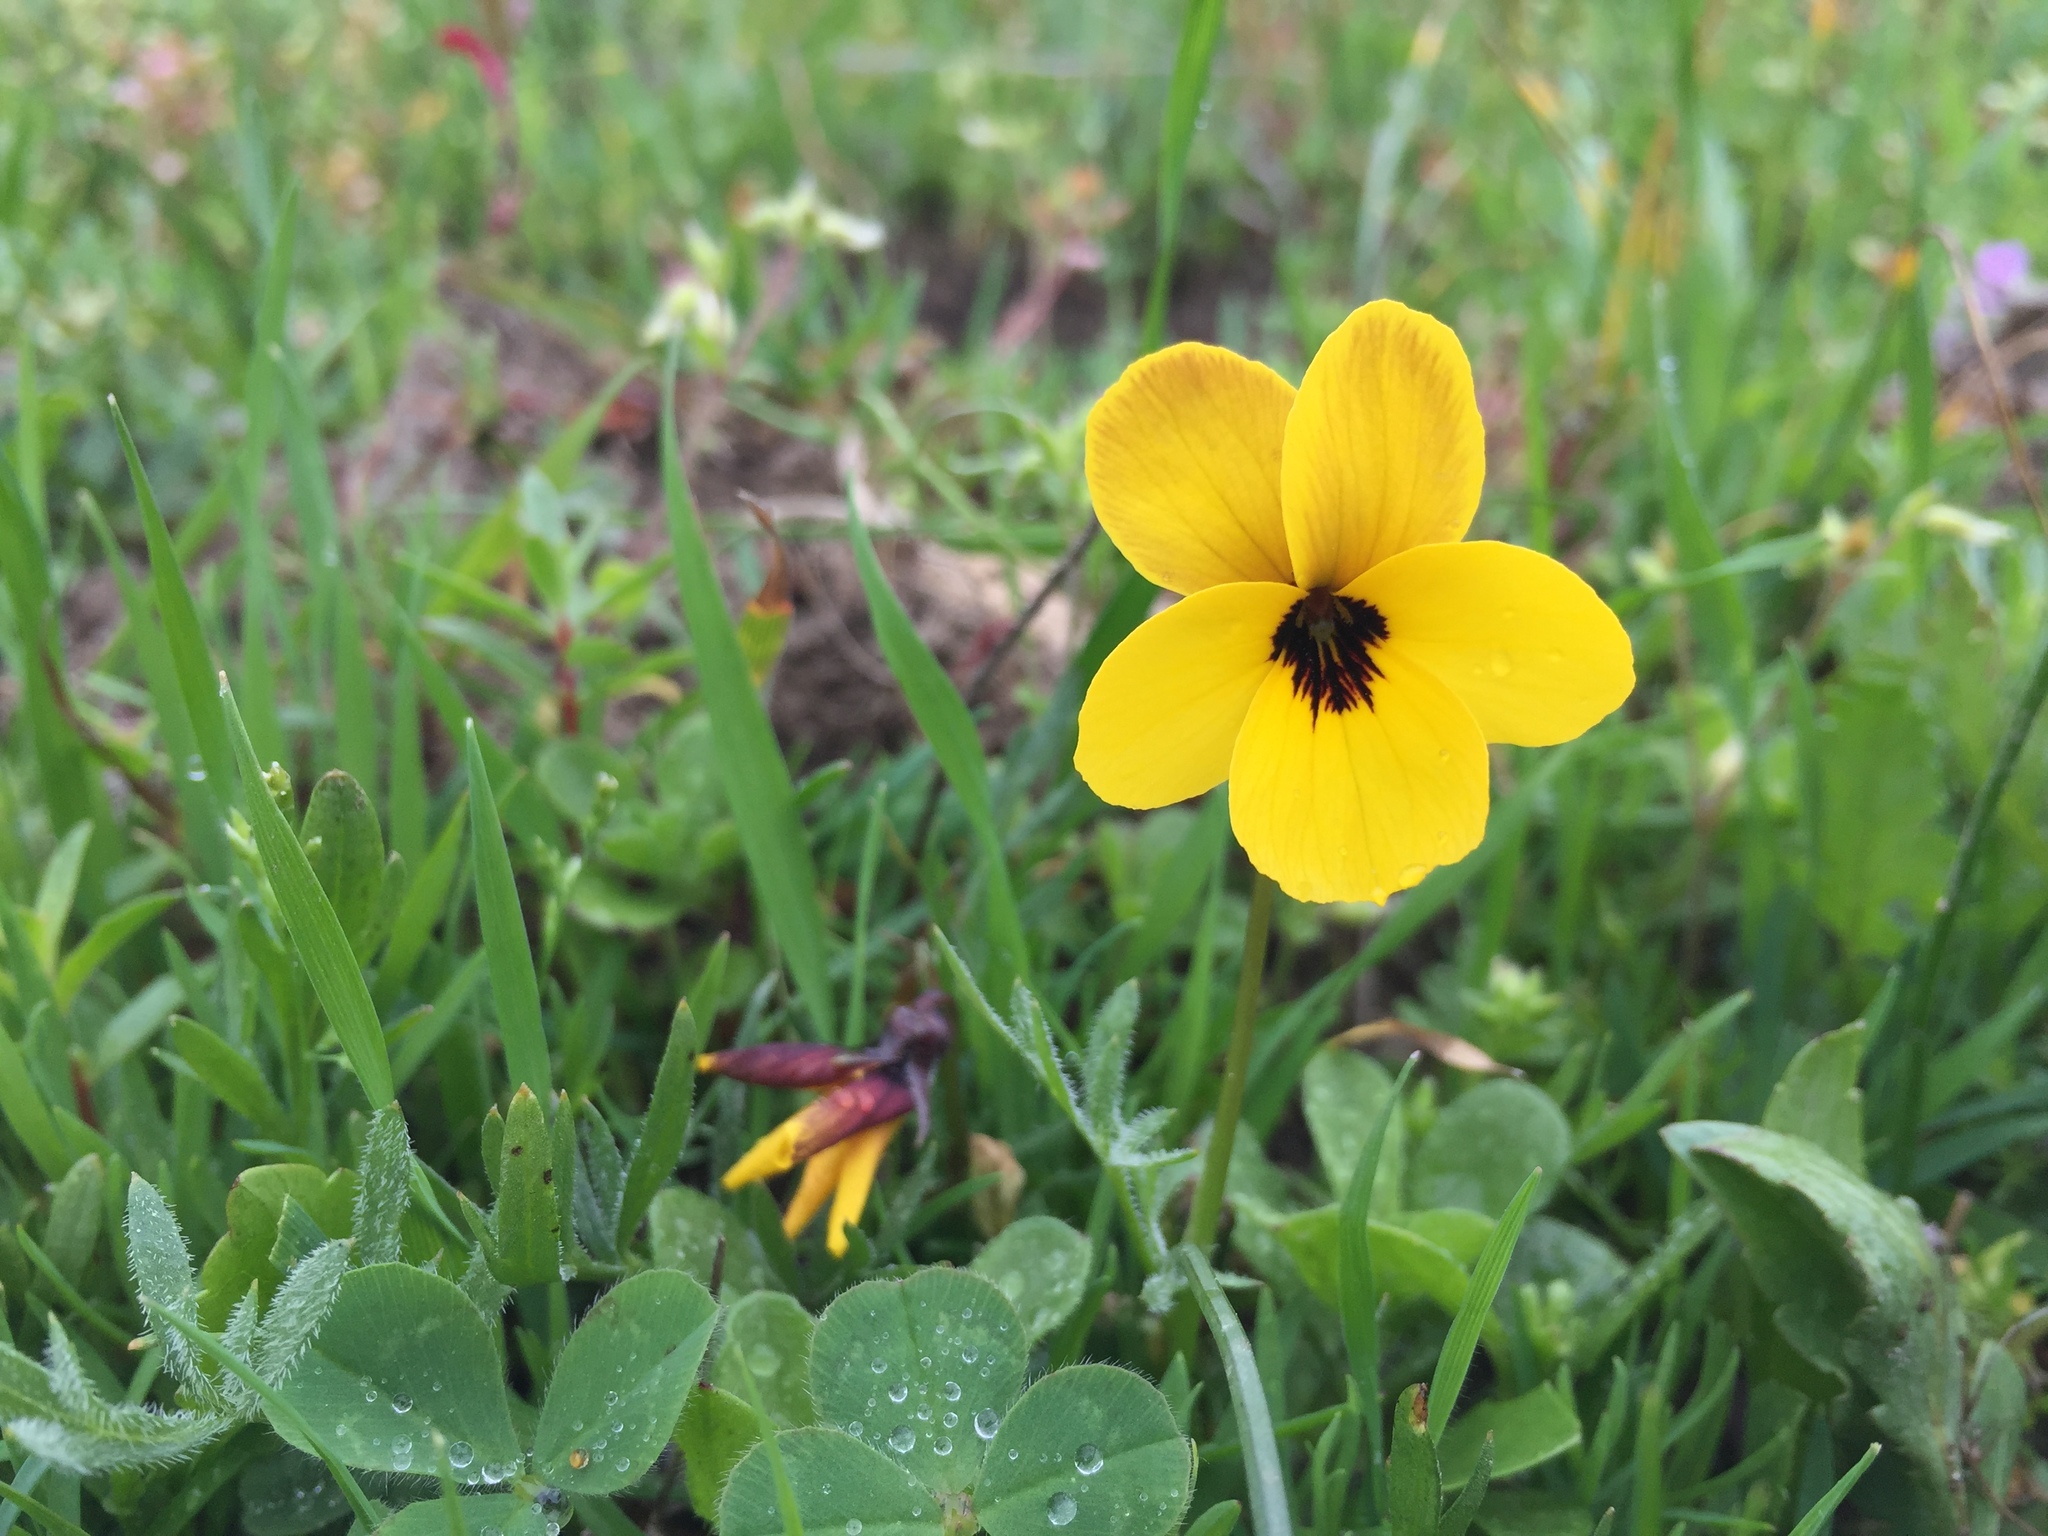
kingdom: Plantae
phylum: Tracheophyta
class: Magnoliopsida
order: Malpighiales
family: Violaceae
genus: Viola
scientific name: Viola douglasii
